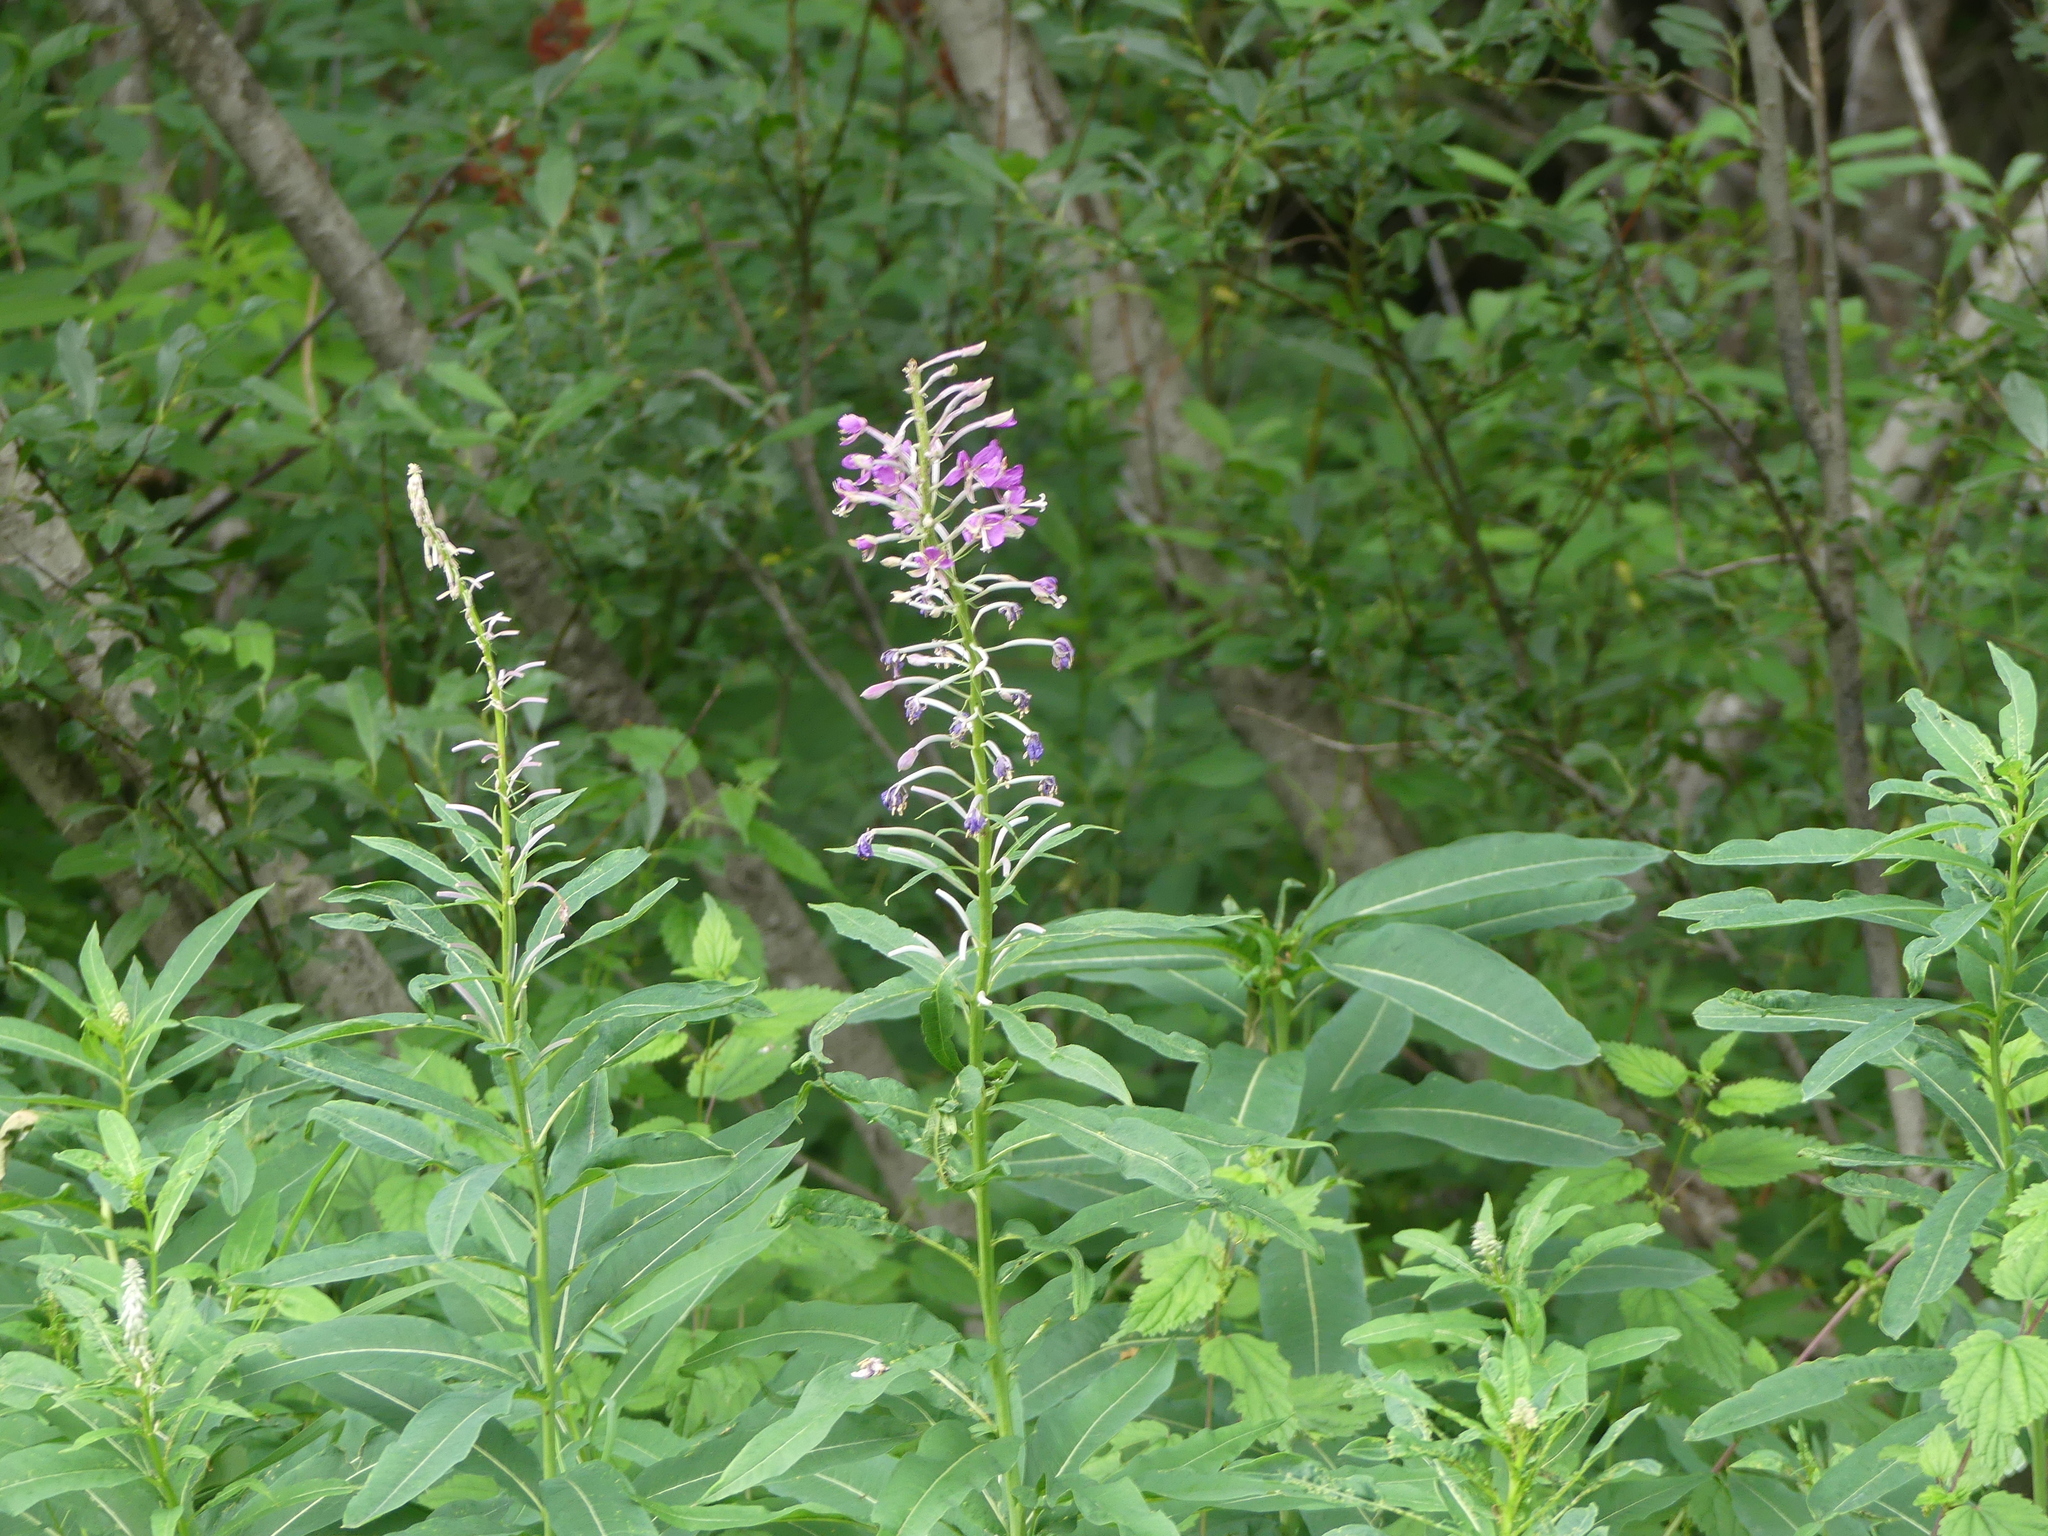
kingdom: Plantae
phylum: Tracheophyta
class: Magnoliopsida
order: Myrtales
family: Onagraceae
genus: Chamaenerion
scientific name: Chamaenerion angustifolium
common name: Fireweed
